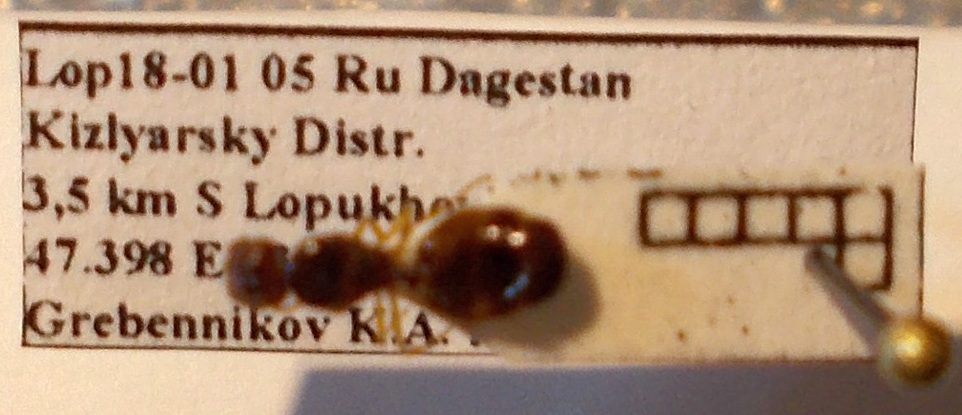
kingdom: Animalia
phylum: Arthropoda
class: Insecta
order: Hymenoptera
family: Formicidae
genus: Pheidole
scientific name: Pheidole pallidula
